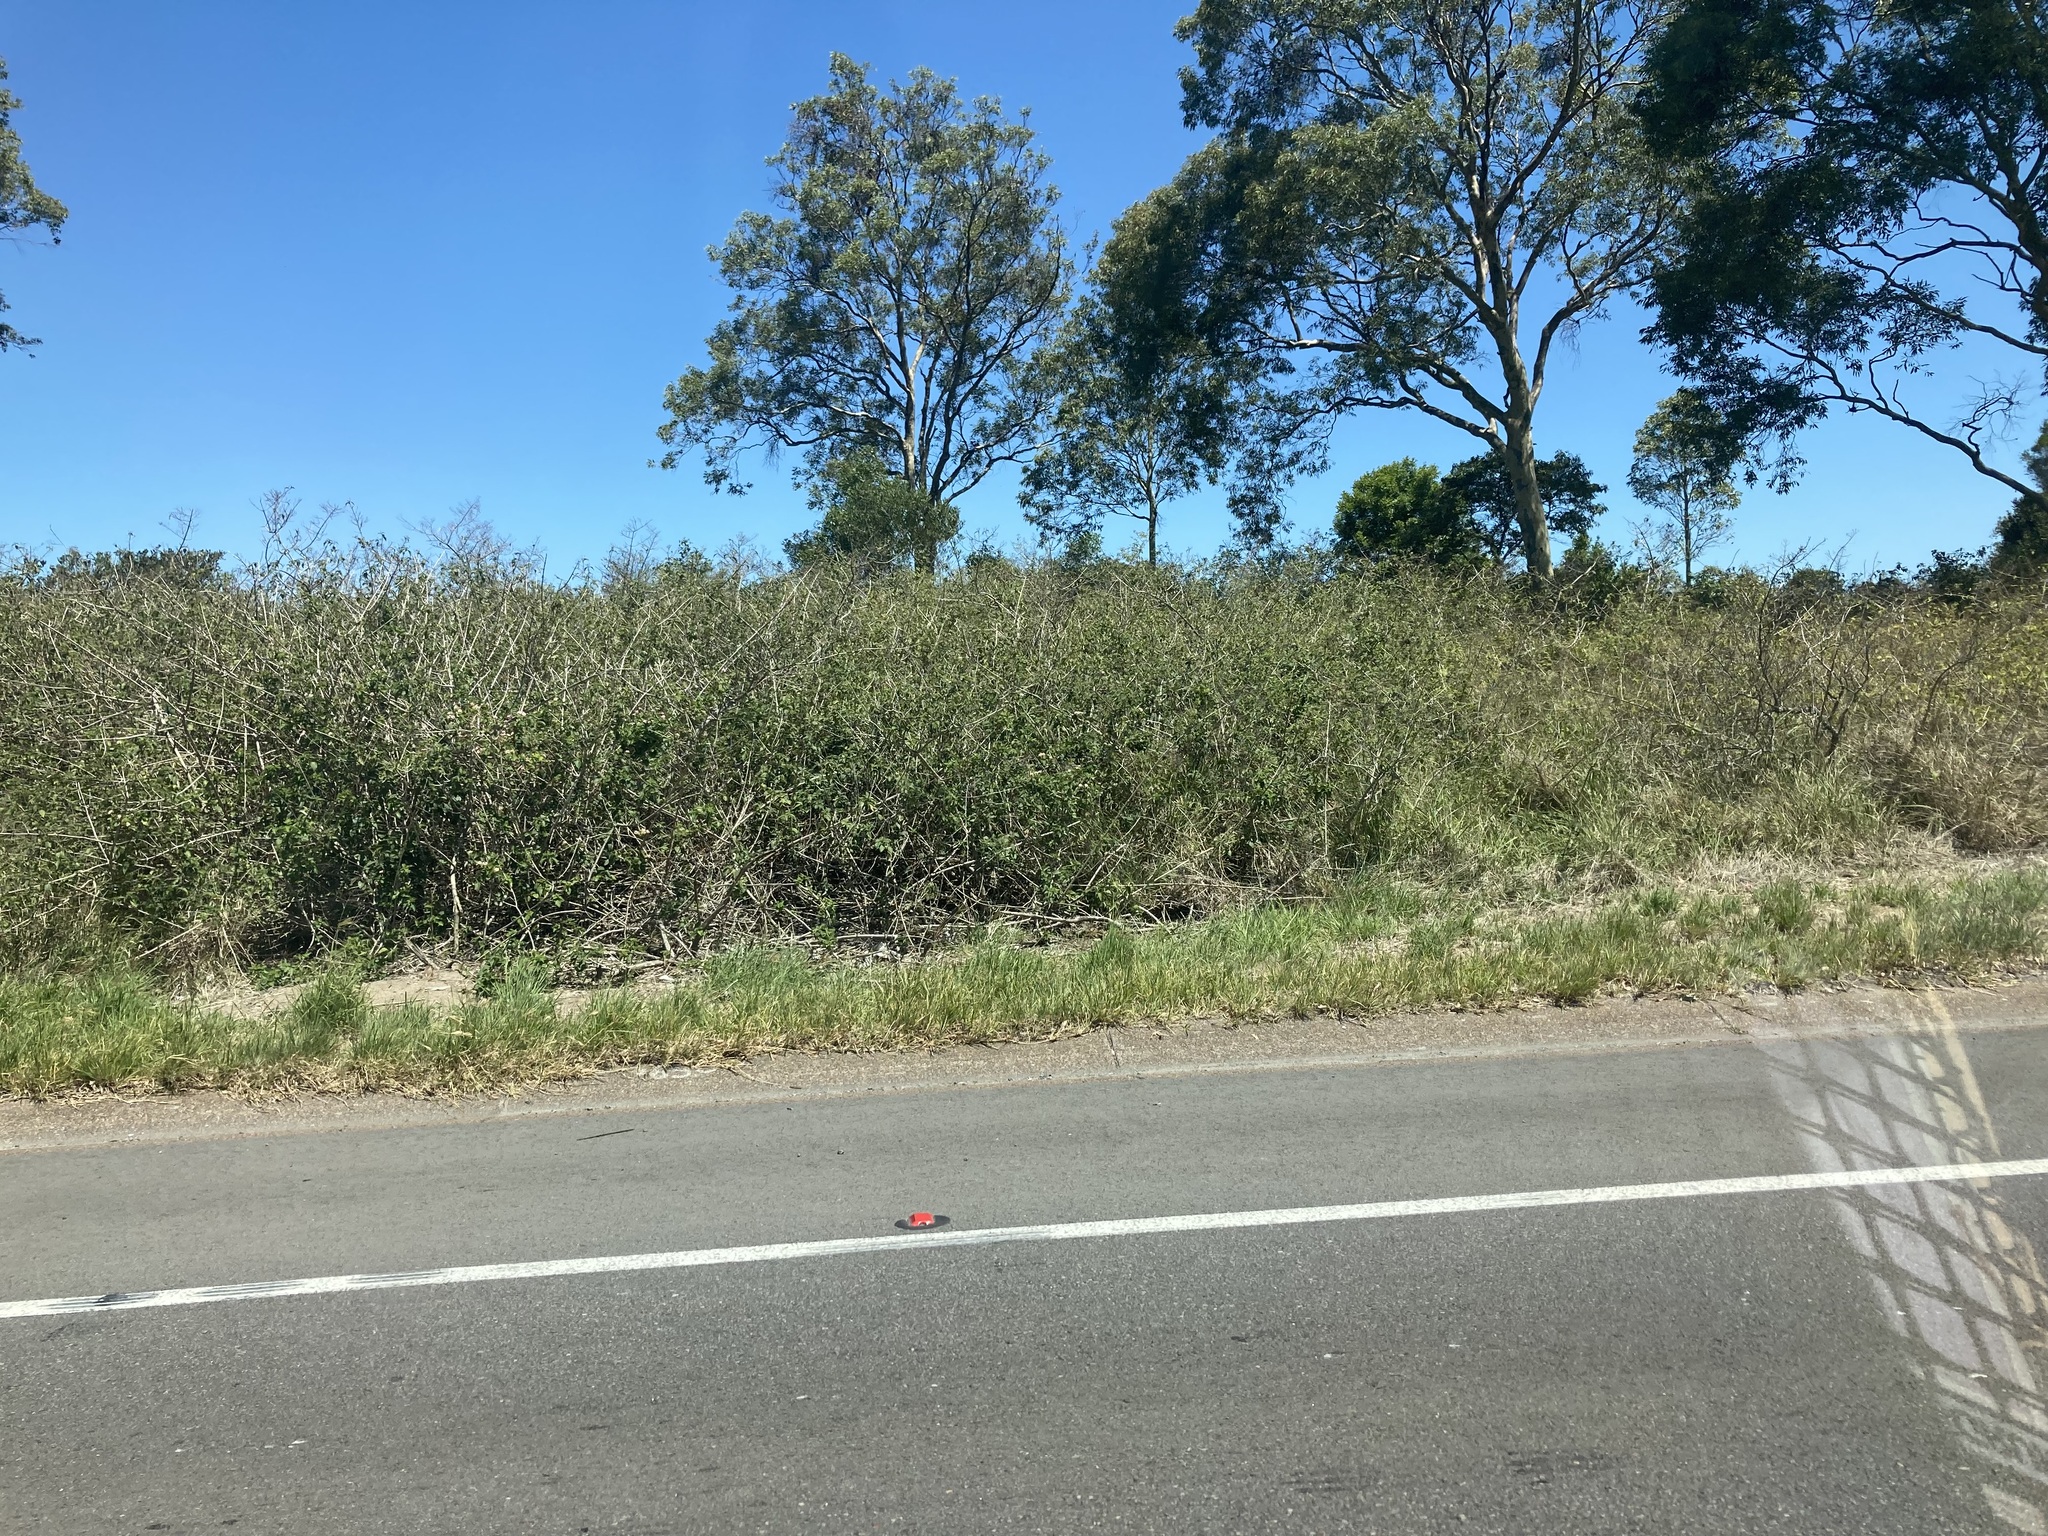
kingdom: Plantae
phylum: Tracheophyta
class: Magnoliopsida
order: Lamiales
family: Verbenaceae
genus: Lantana
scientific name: Lantana camara
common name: Lantana
